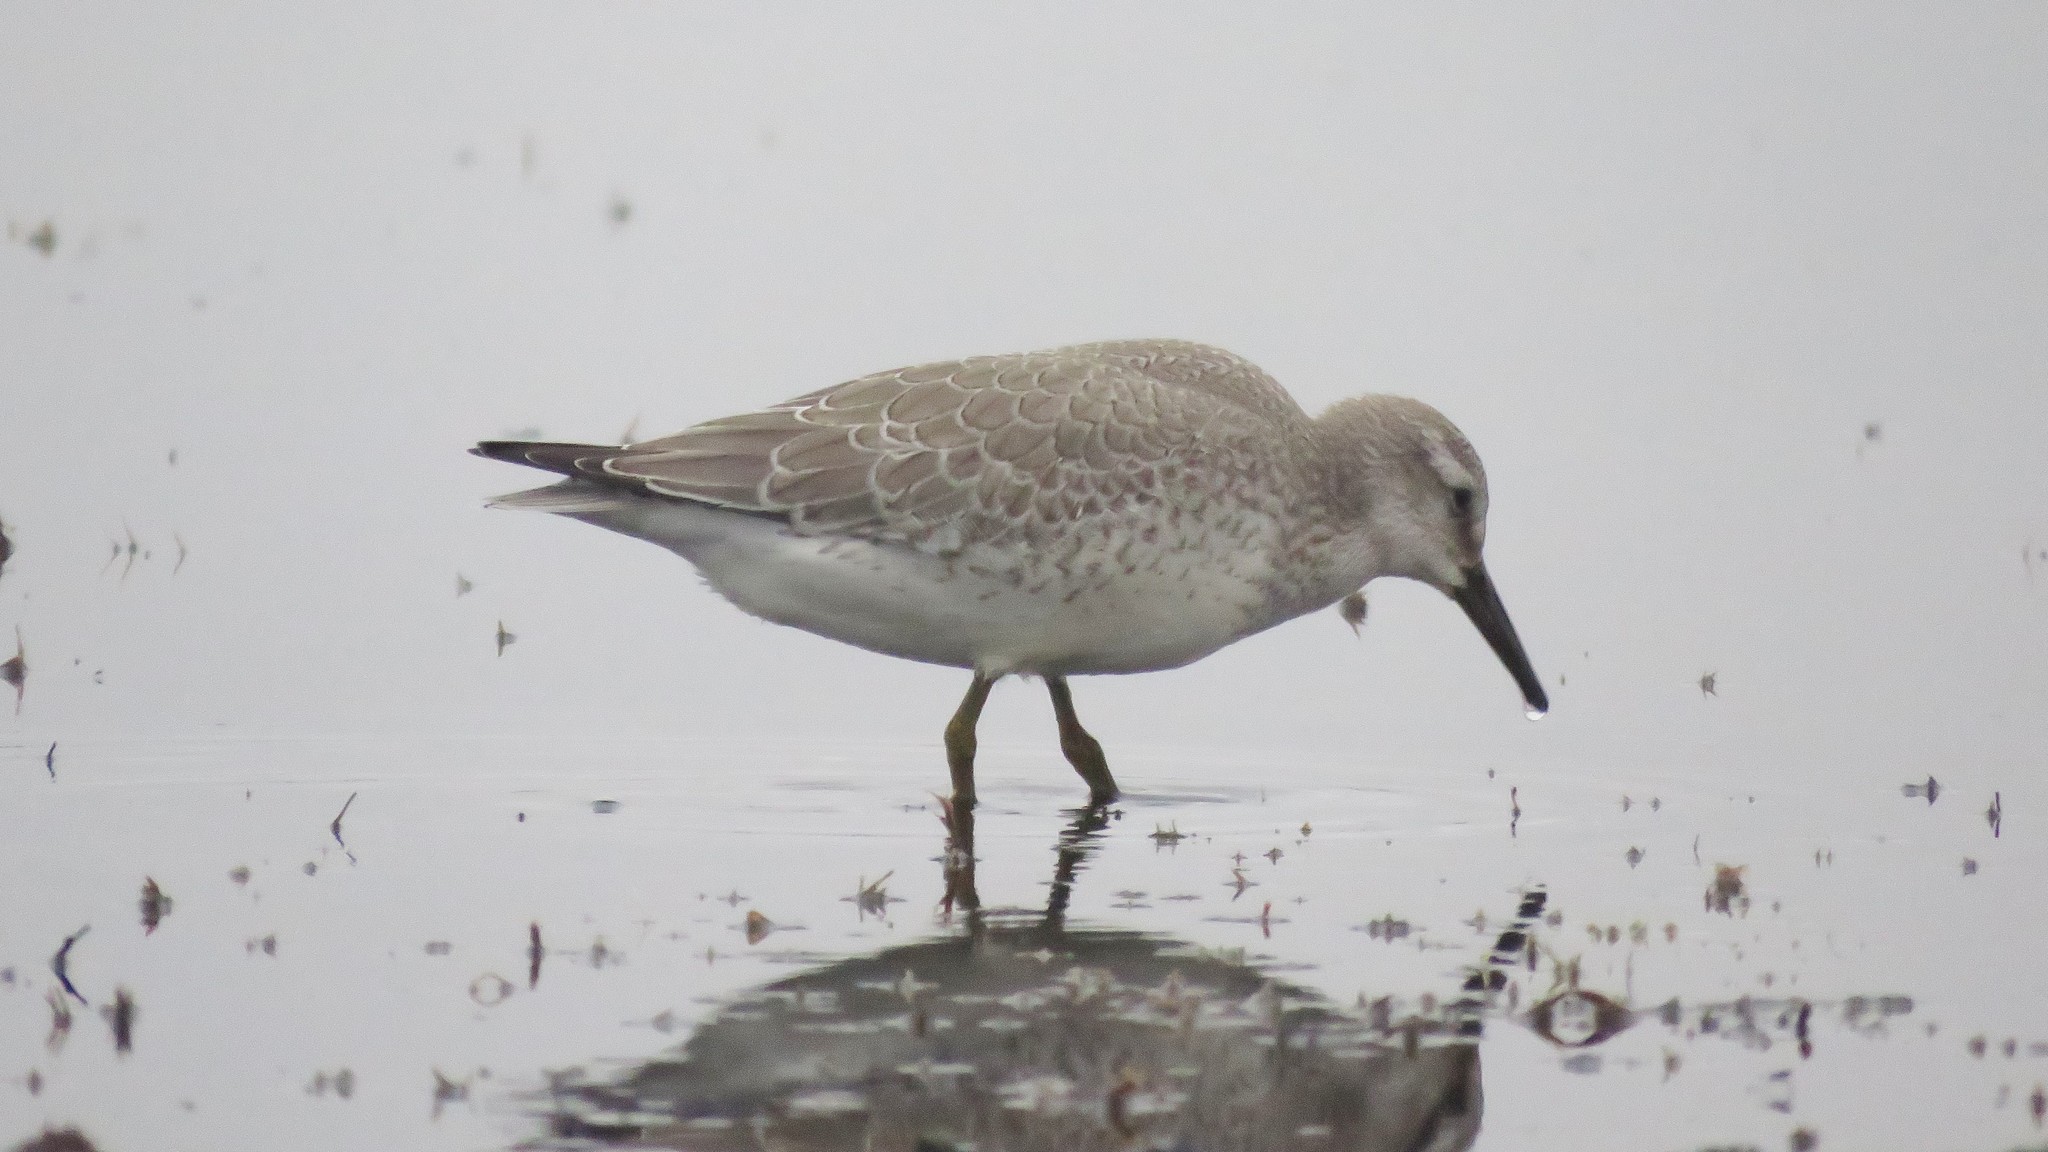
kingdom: Animalia
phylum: Chordata
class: Aves
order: Charadriiformes
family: Scolopacidae
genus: Calidris
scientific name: Calidris canutus
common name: Red knot
